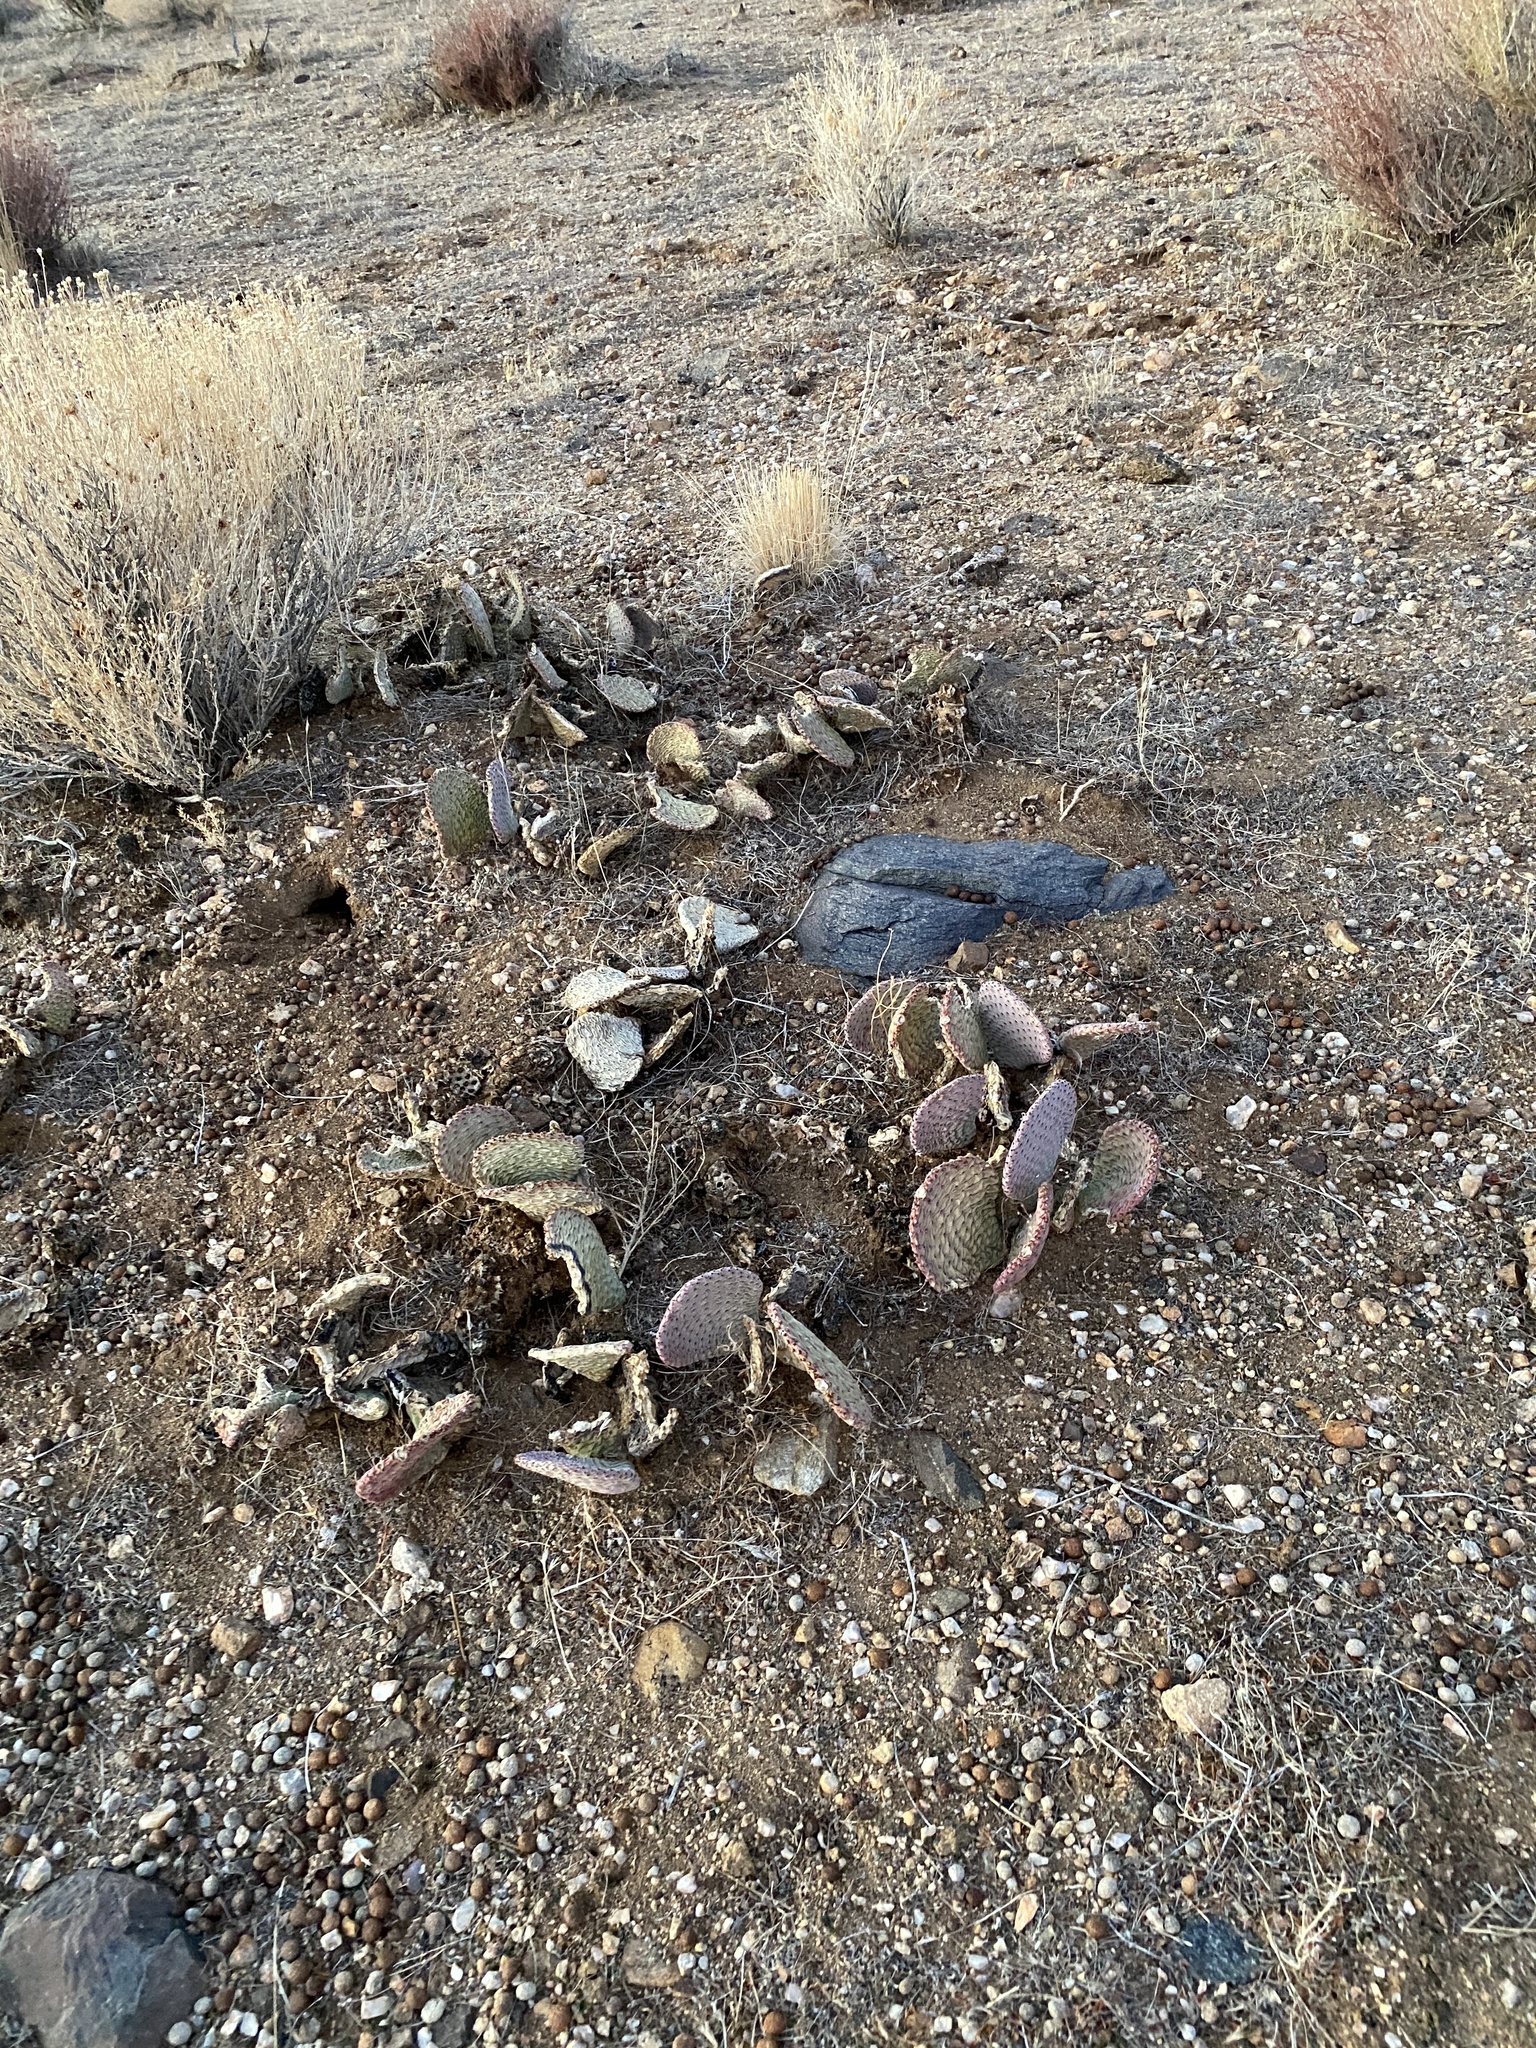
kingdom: Plantae
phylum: Tracheophyta
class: Magnoliopsida
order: Caryophyllales
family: Cactaceae
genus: Opuntia
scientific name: Opuntia basilaris
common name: Beavertail prickly-pear
